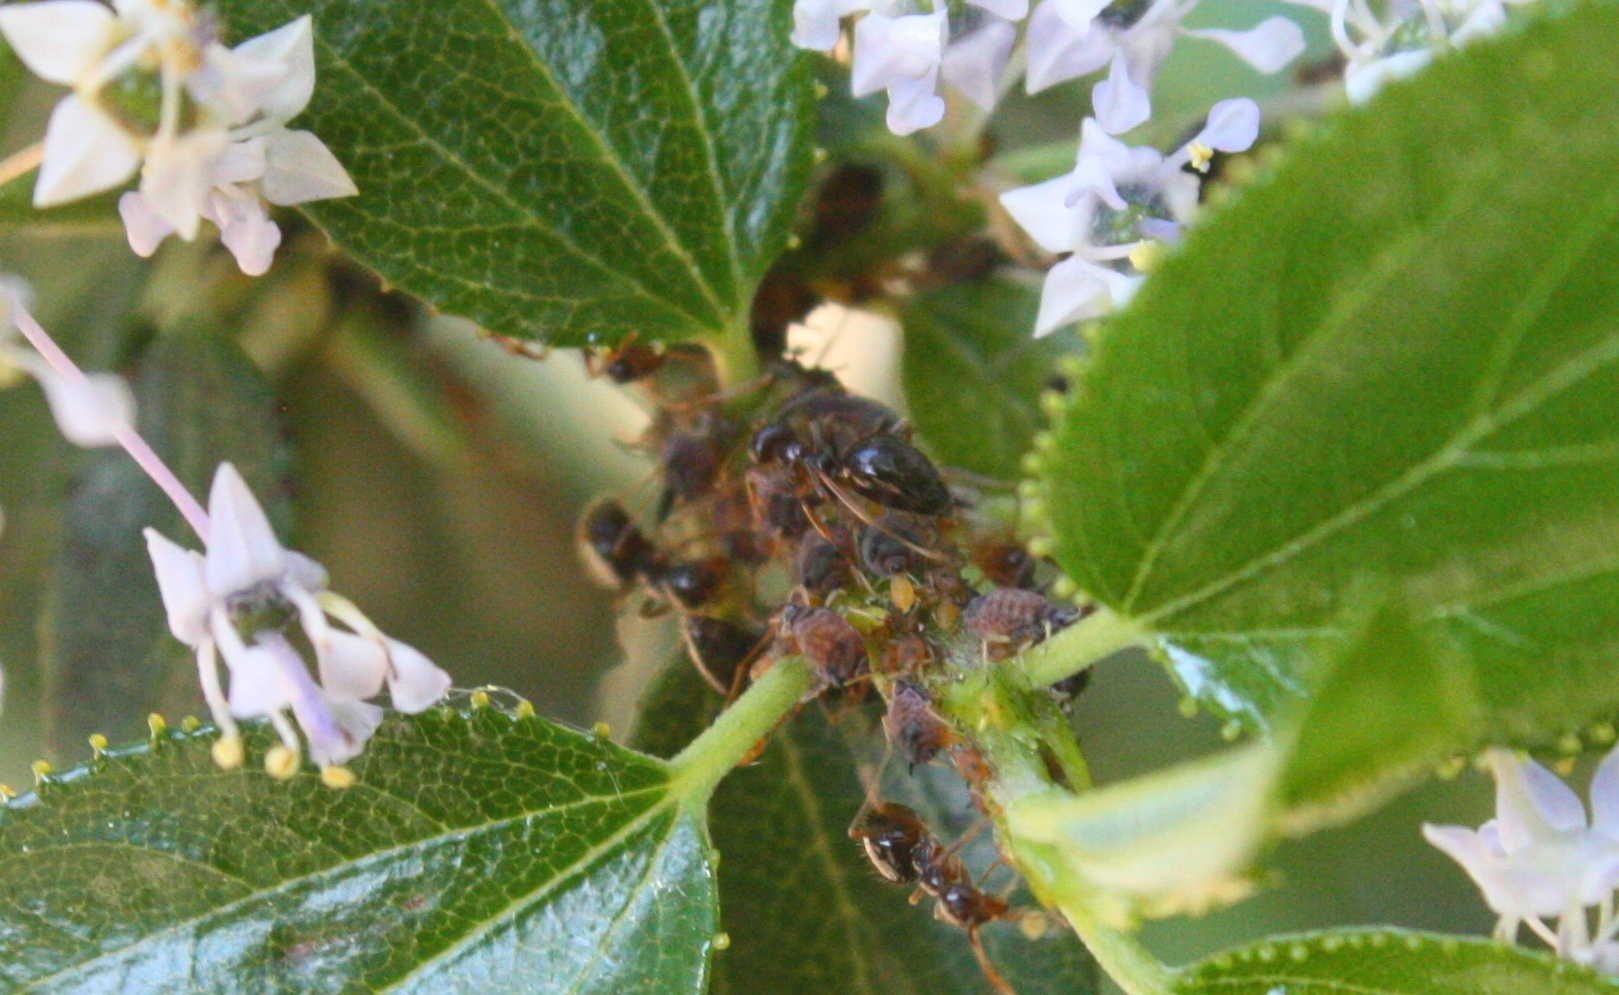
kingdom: Animalia
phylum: Arthropoda
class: Insecta
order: Hymenoptera
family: Formicidae
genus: Prenolepis
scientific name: Prenolepis imparis
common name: Small honey ant
